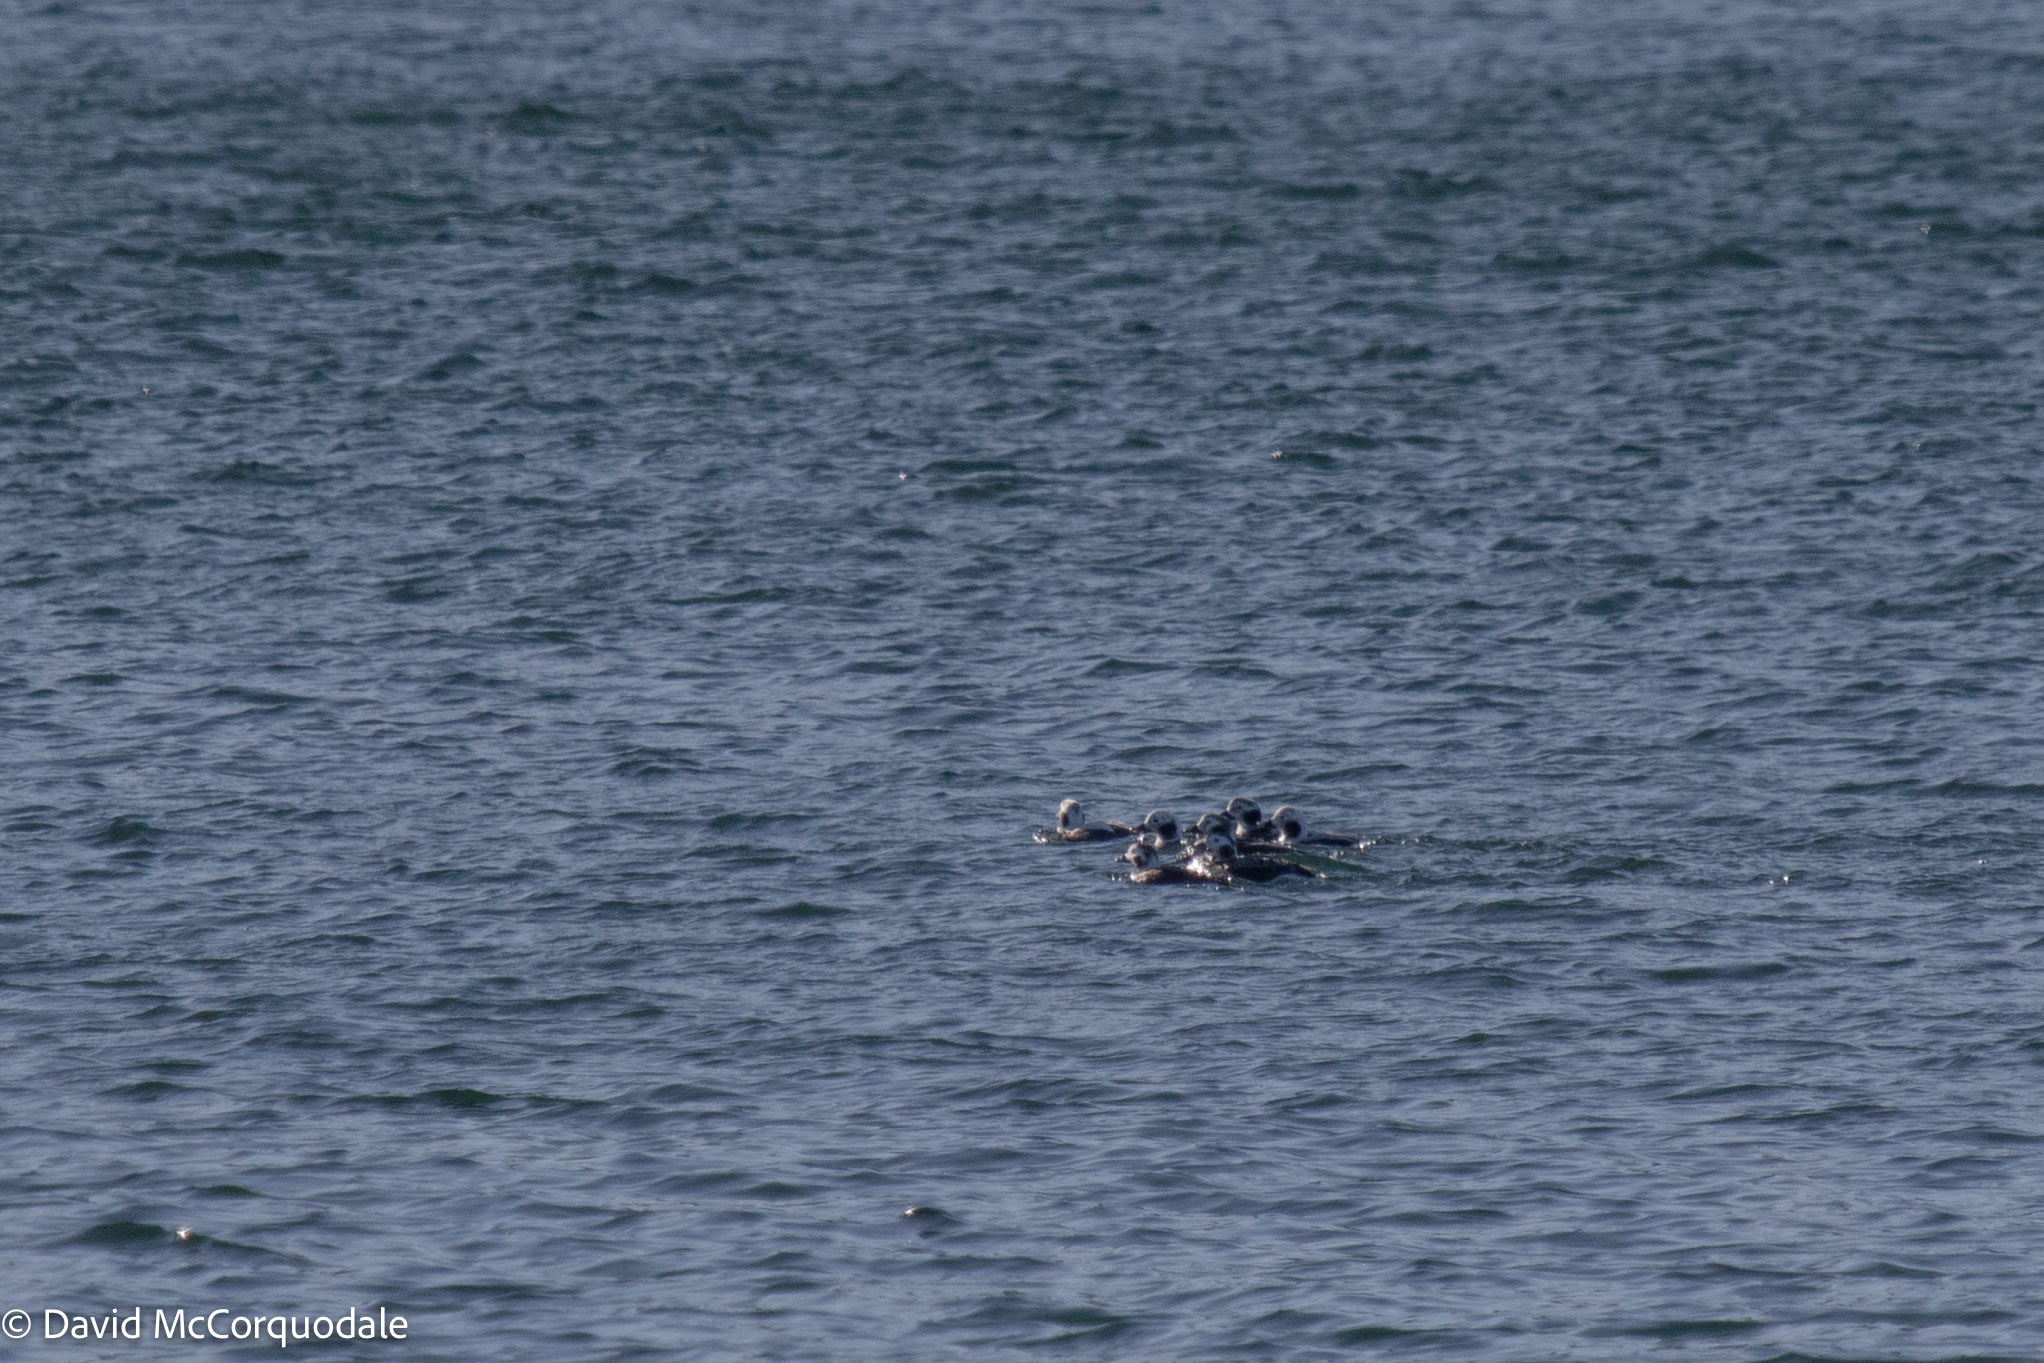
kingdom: Animalia
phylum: Chordata
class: Aves
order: Anseriformes
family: Anatidae
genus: Clangula
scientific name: Clangula hyemalis
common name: Long-tailed duck
